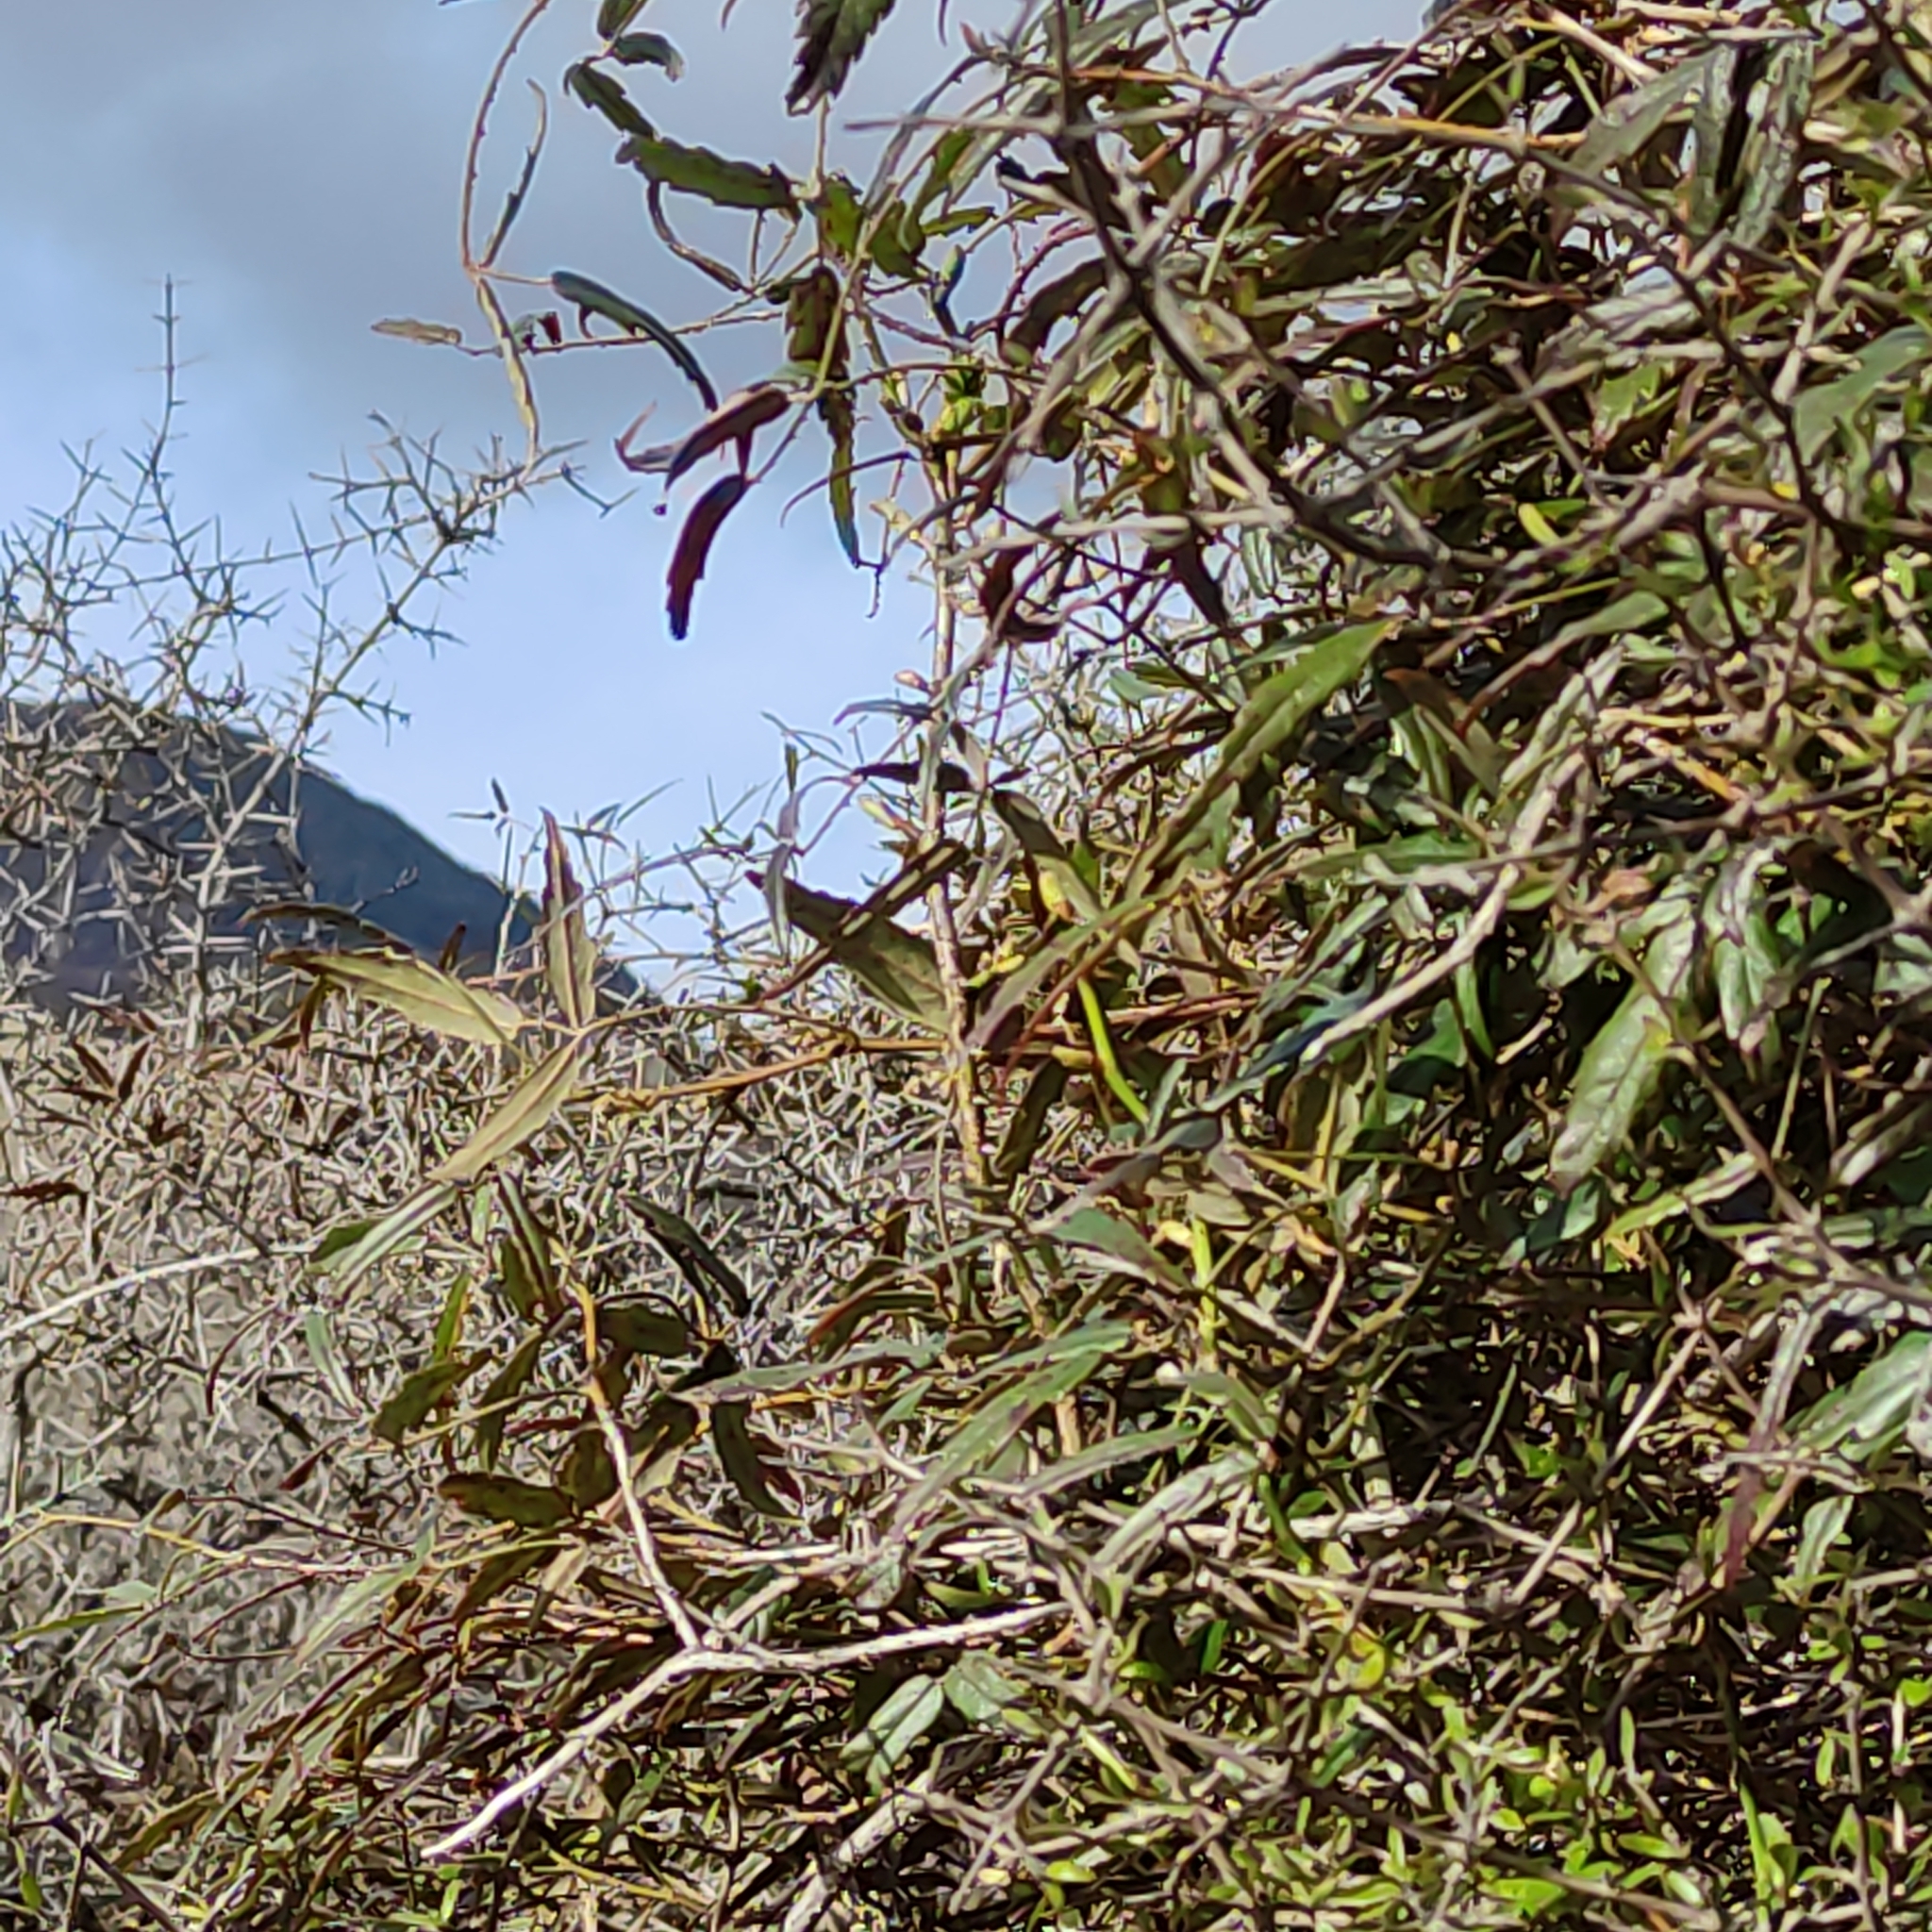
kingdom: Plantae
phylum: Tracheophyta
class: Magnoliopsida
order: Rosales
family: Rosaceae
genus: Rubus
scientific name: Rubus schmidelioides
